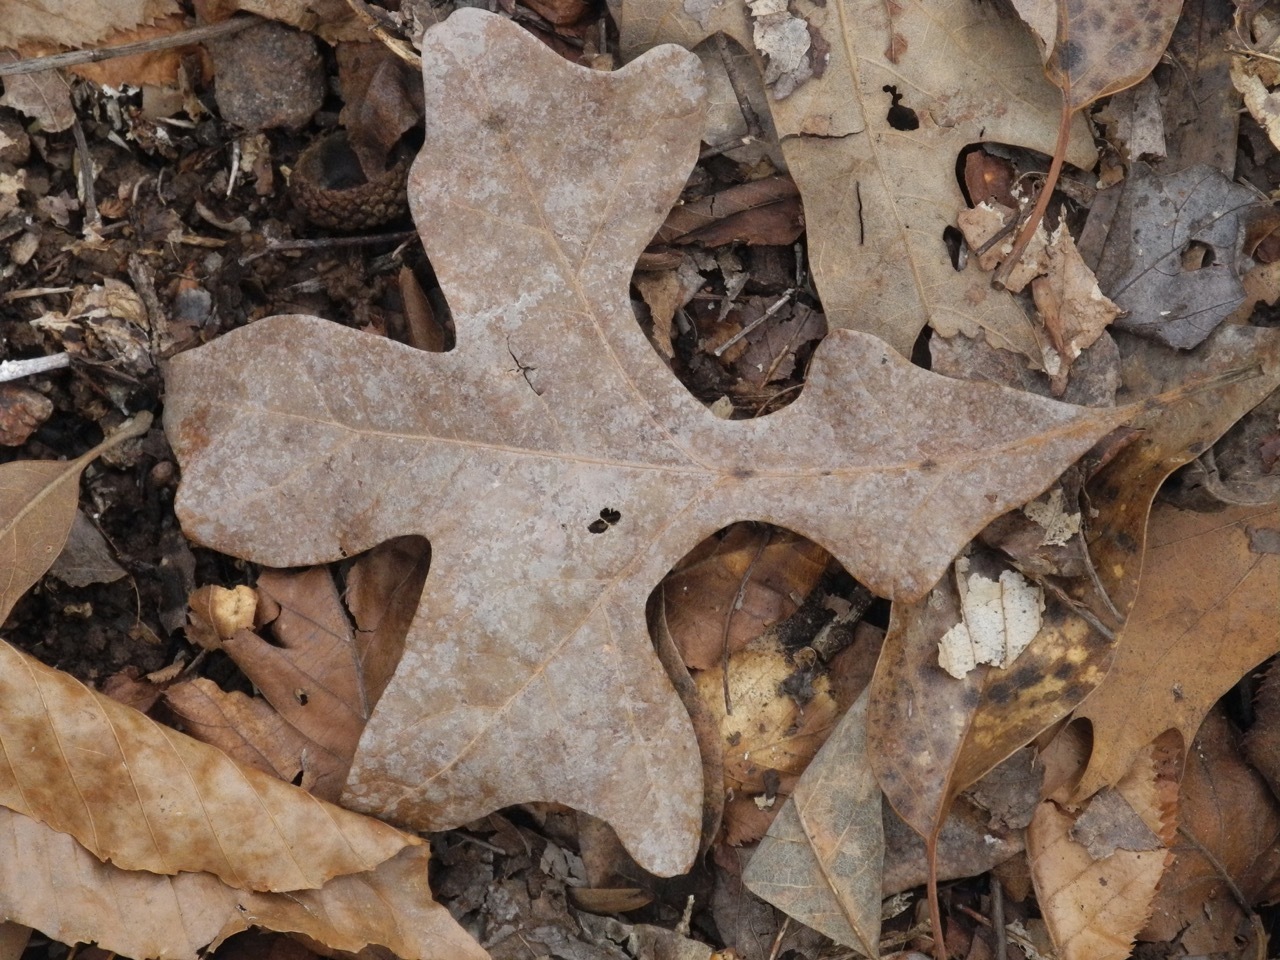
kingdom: Plantae
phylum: Tracheophyta
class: Magnoliopsida
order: Fagales
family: Fagaceae
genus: Quercus
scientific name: Quercus stellata
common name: Post oak
